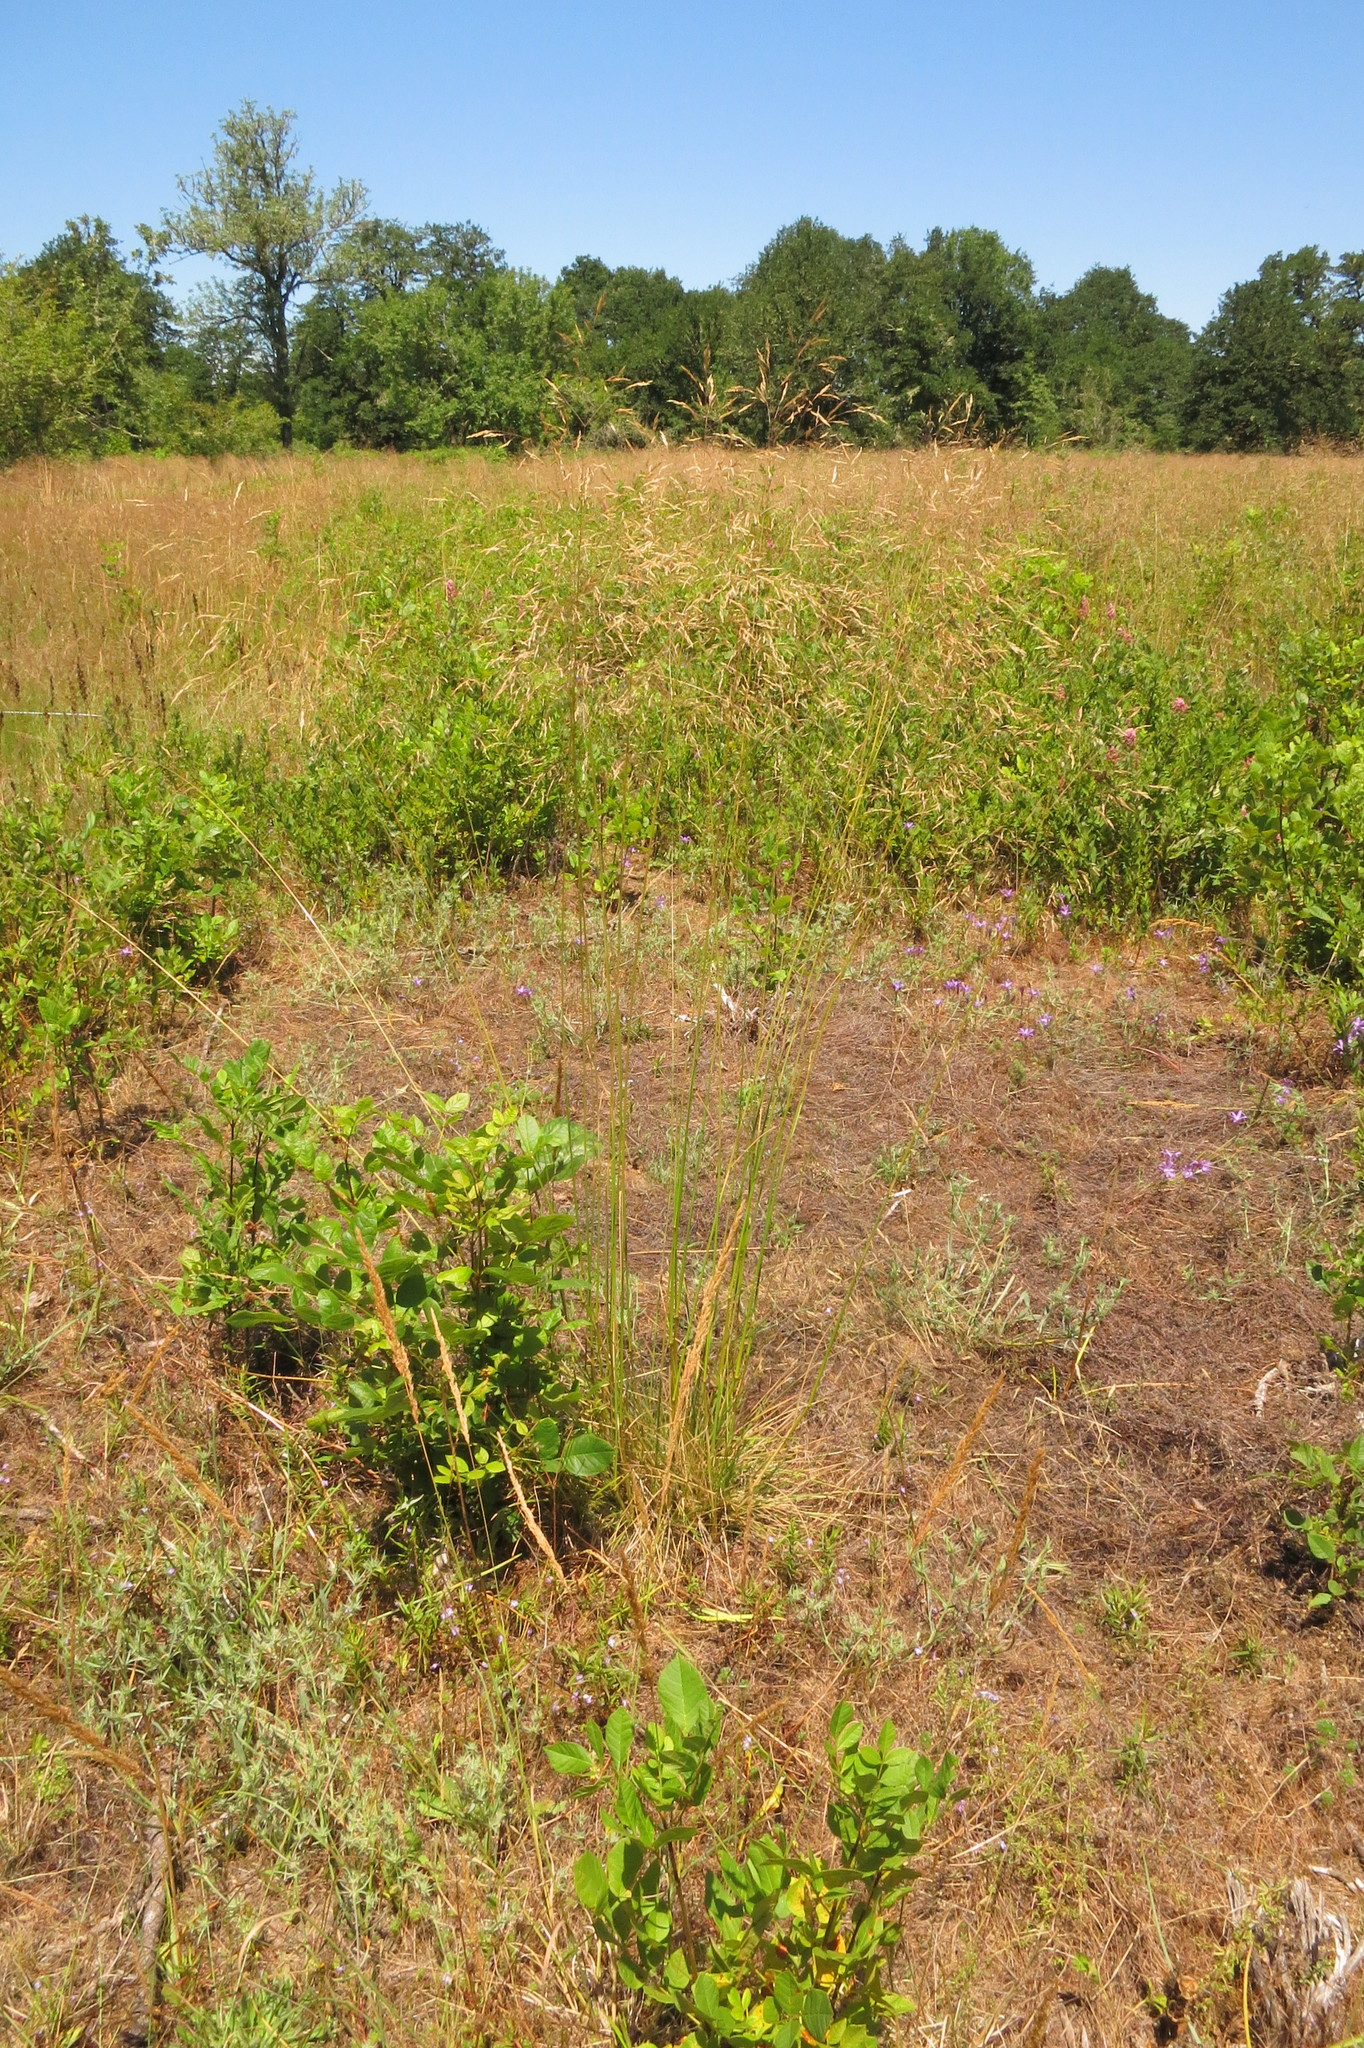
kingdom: Plantae
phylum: Tracheophyta
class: Magnoliopsida
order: Ericales
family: Polemoniaceae
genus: Navarretia
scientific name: Navarretia willamettensis
